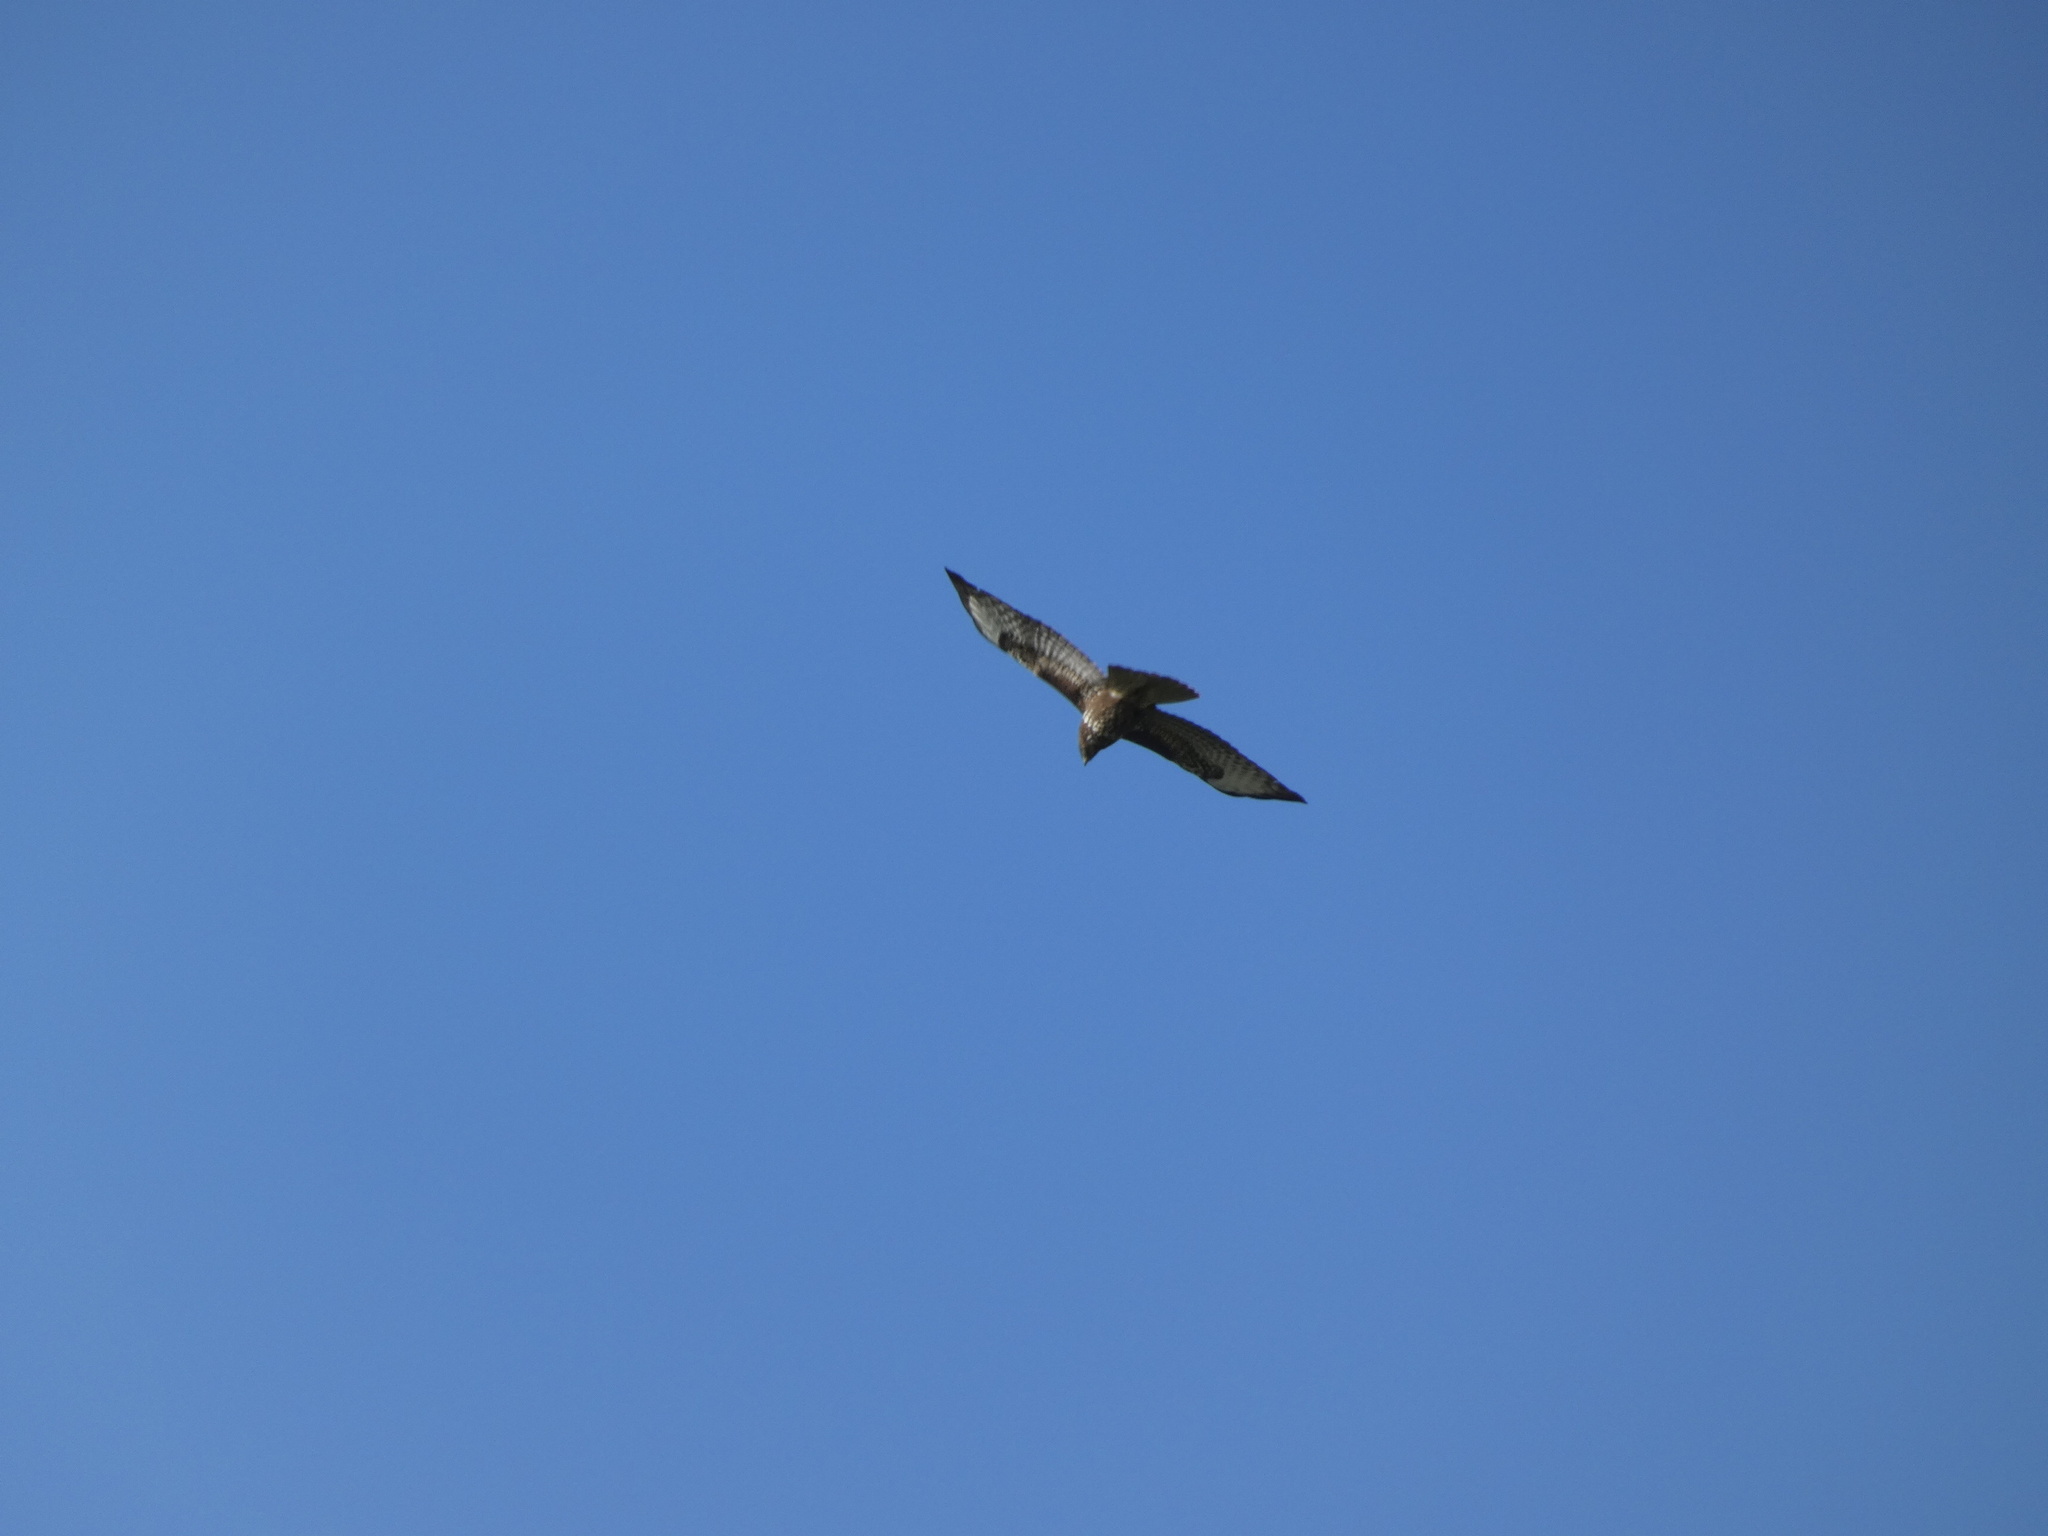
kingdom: Animalia
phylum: Chordata
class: Aves
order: Accipitriformes
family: Accipitridae
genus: Buteo
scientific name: Buteo buteo
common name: Common buzzard
